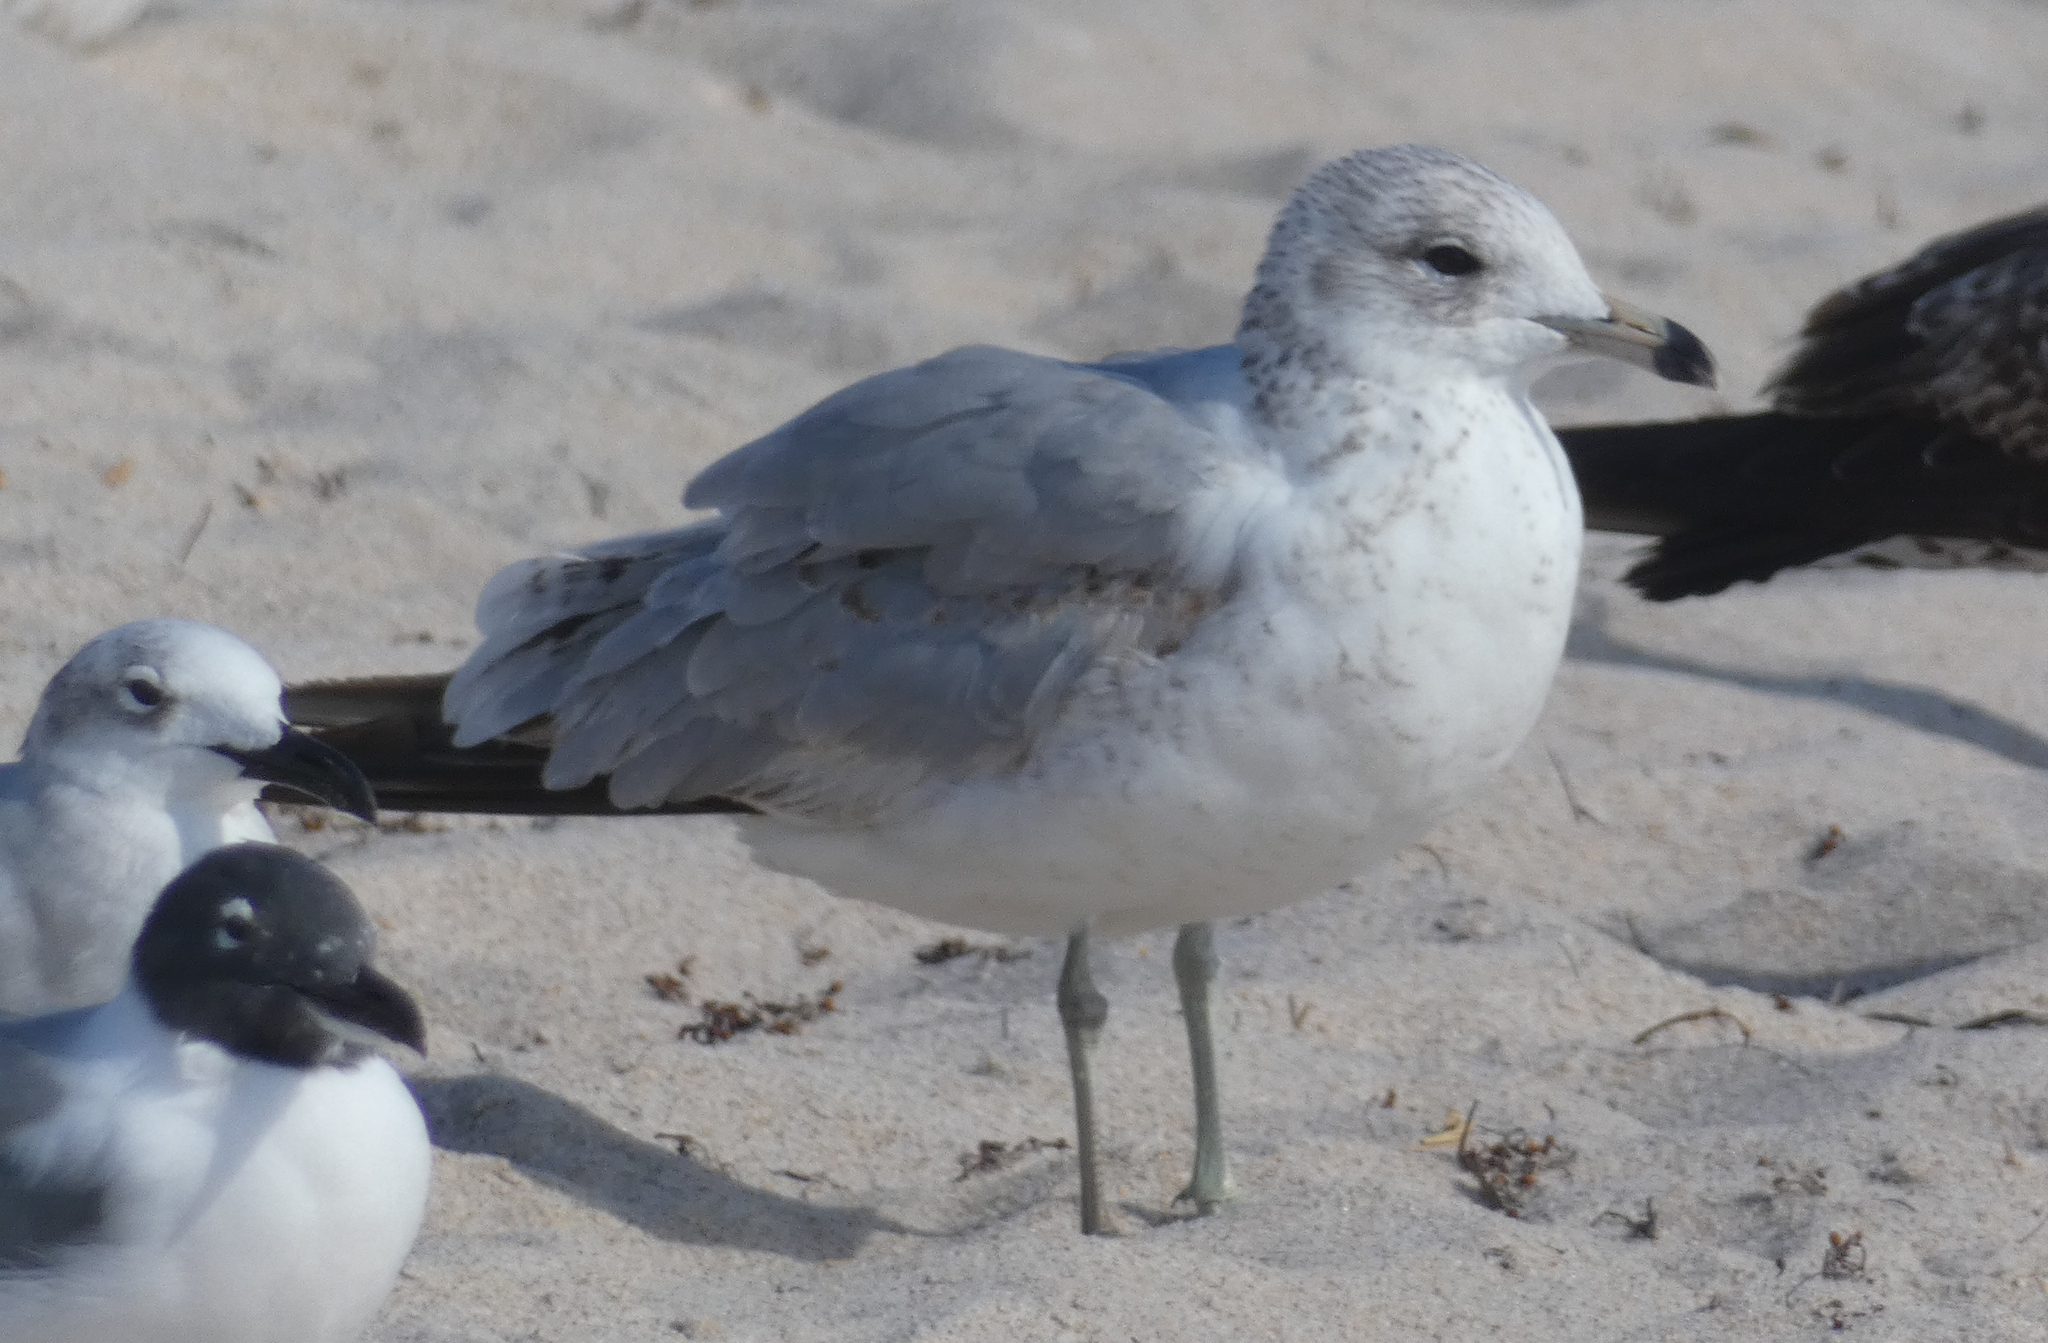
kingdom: Animalia
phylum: Chordata
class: Aves
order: Charadriiformes
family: Laridae
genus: Larus
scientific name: Larus delawarensis
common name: Ring-billed gull
